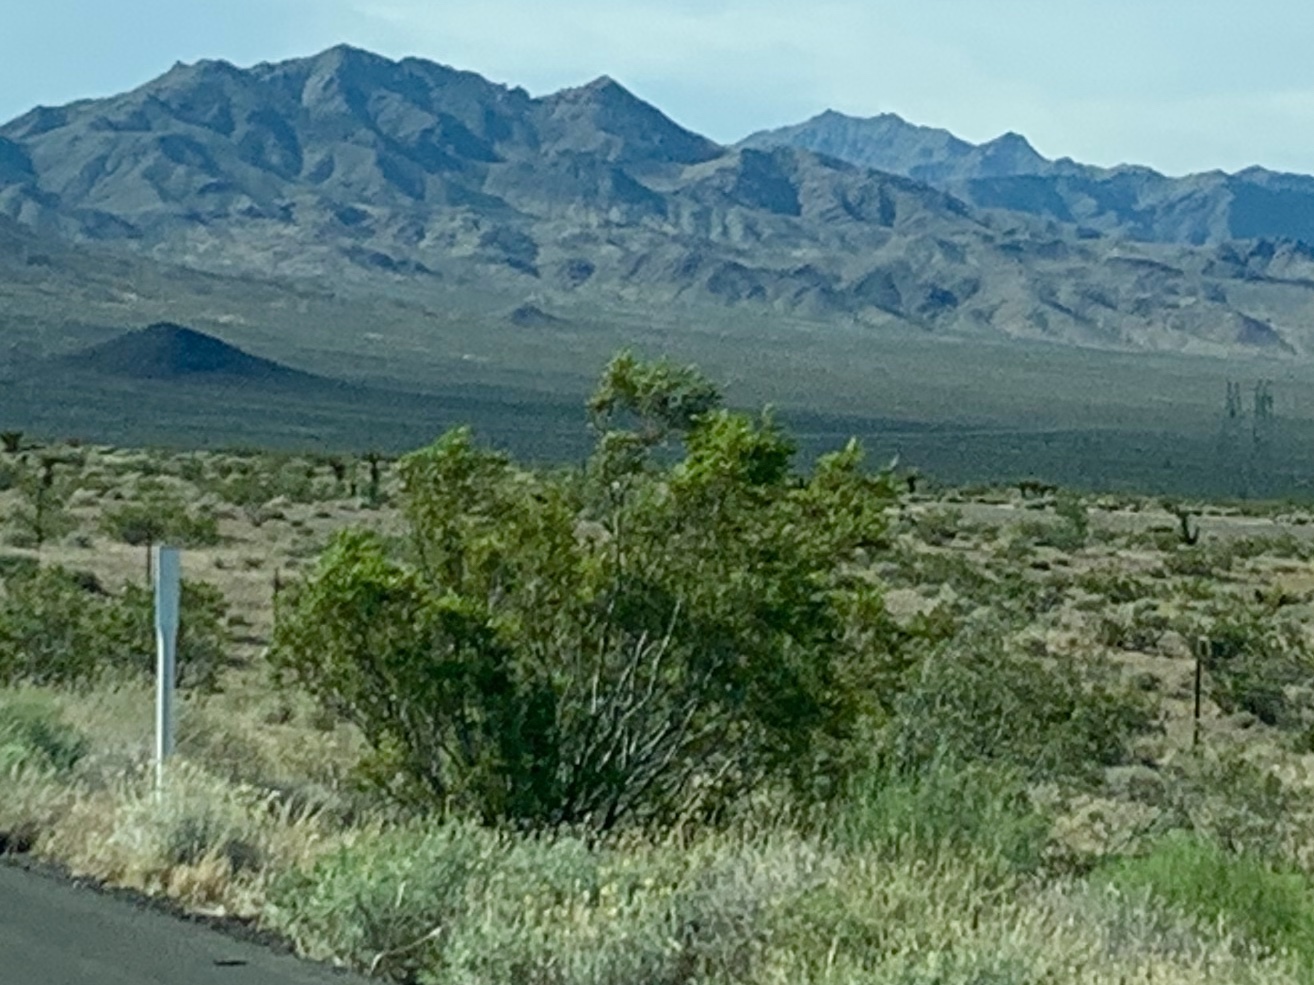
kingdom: Plantae
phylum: Tracheophyta
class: Magnoliopsida
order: Zygophyllales
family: Zygophyllaceae
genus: Larrea
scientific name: Larrea tridentata
